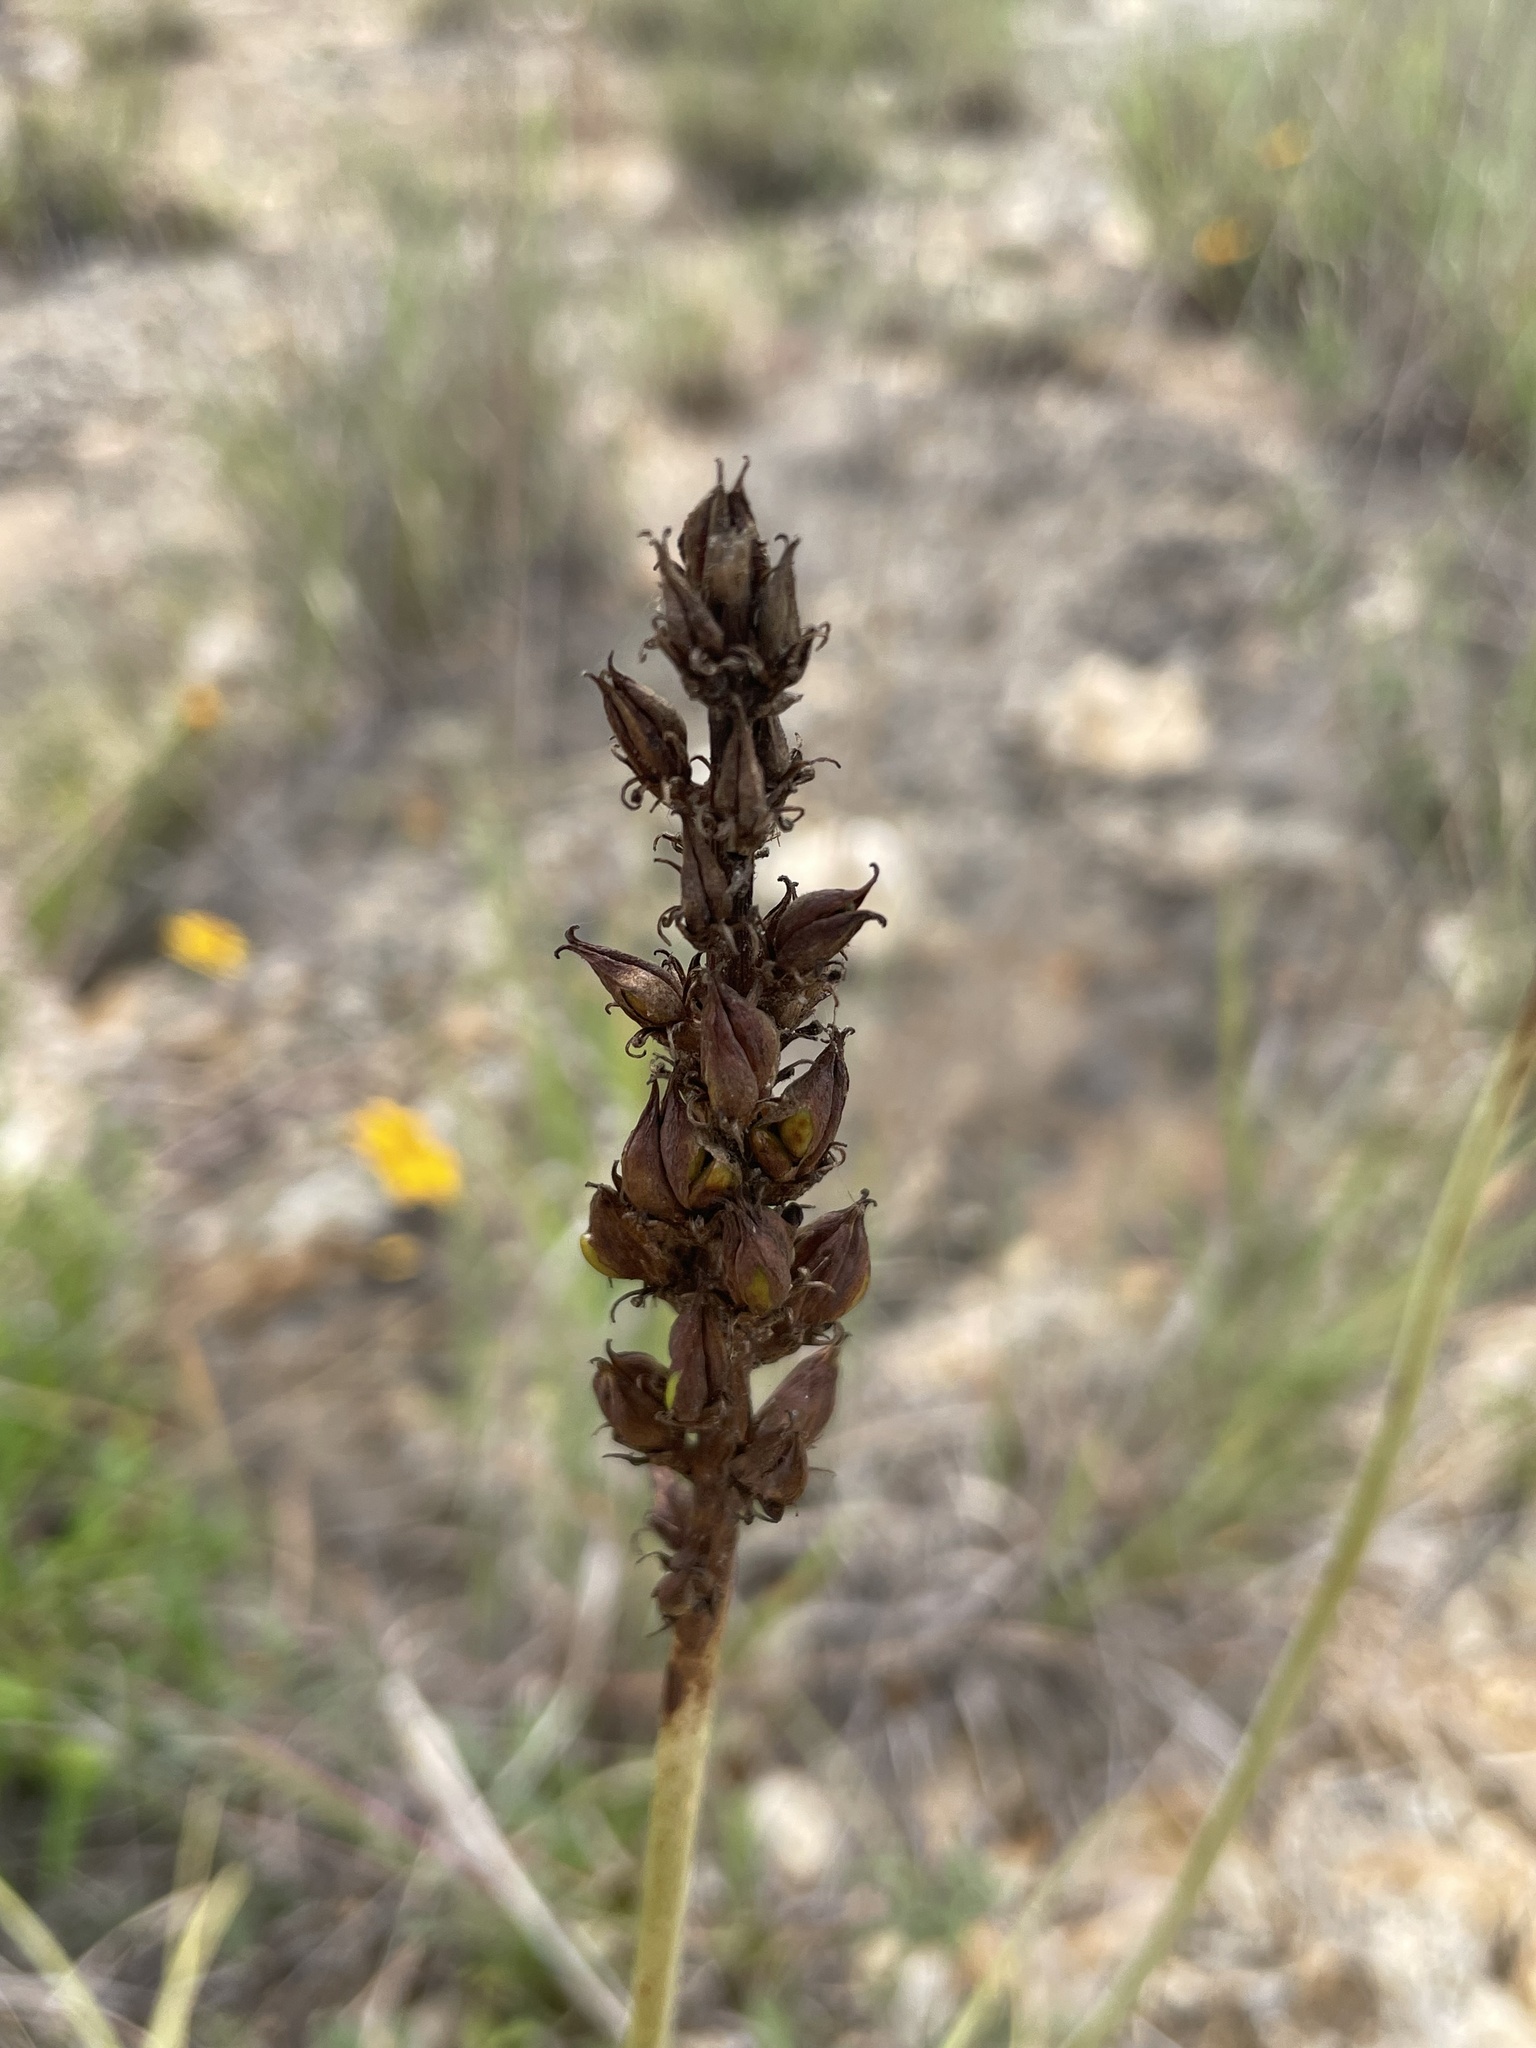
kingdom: Plantae
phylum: Tracheophyta
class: Liliopsida
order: Liliales
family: Melanthiaceae
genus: Schoenocaulon
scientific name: Schoenocaulon texanum
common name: Texas feather-shank
